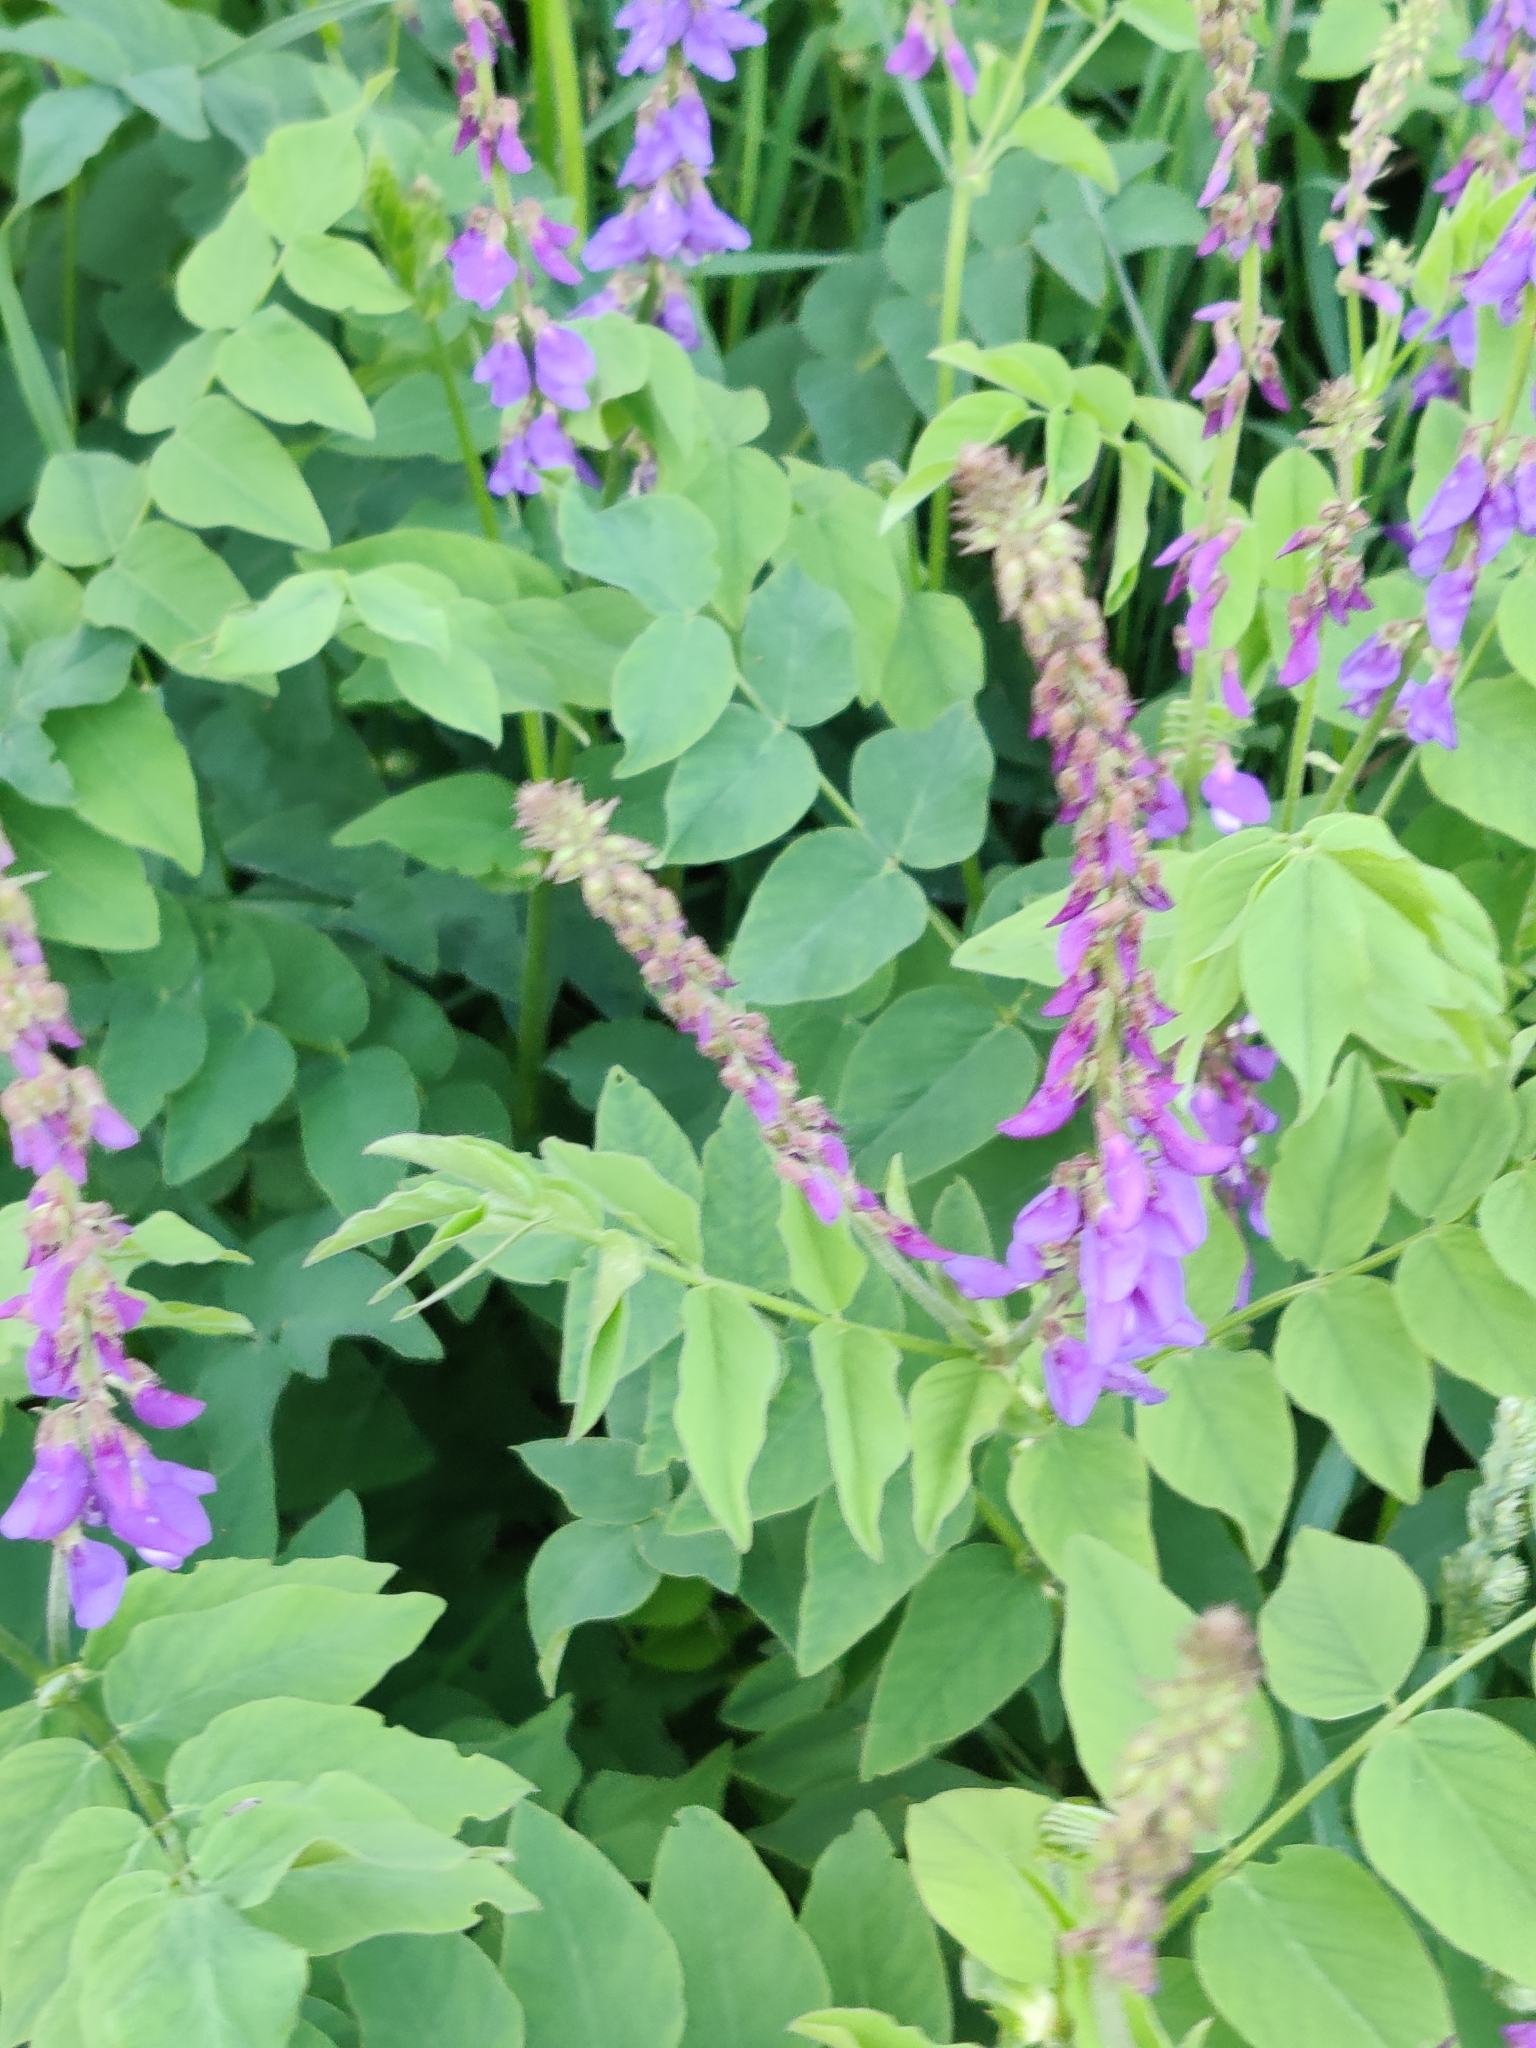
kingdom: Plantae
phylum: Tracheophyta
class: Magnoliopsida
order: Fabales
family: Fabaceae
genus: Galega
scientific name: Galega orientalis
